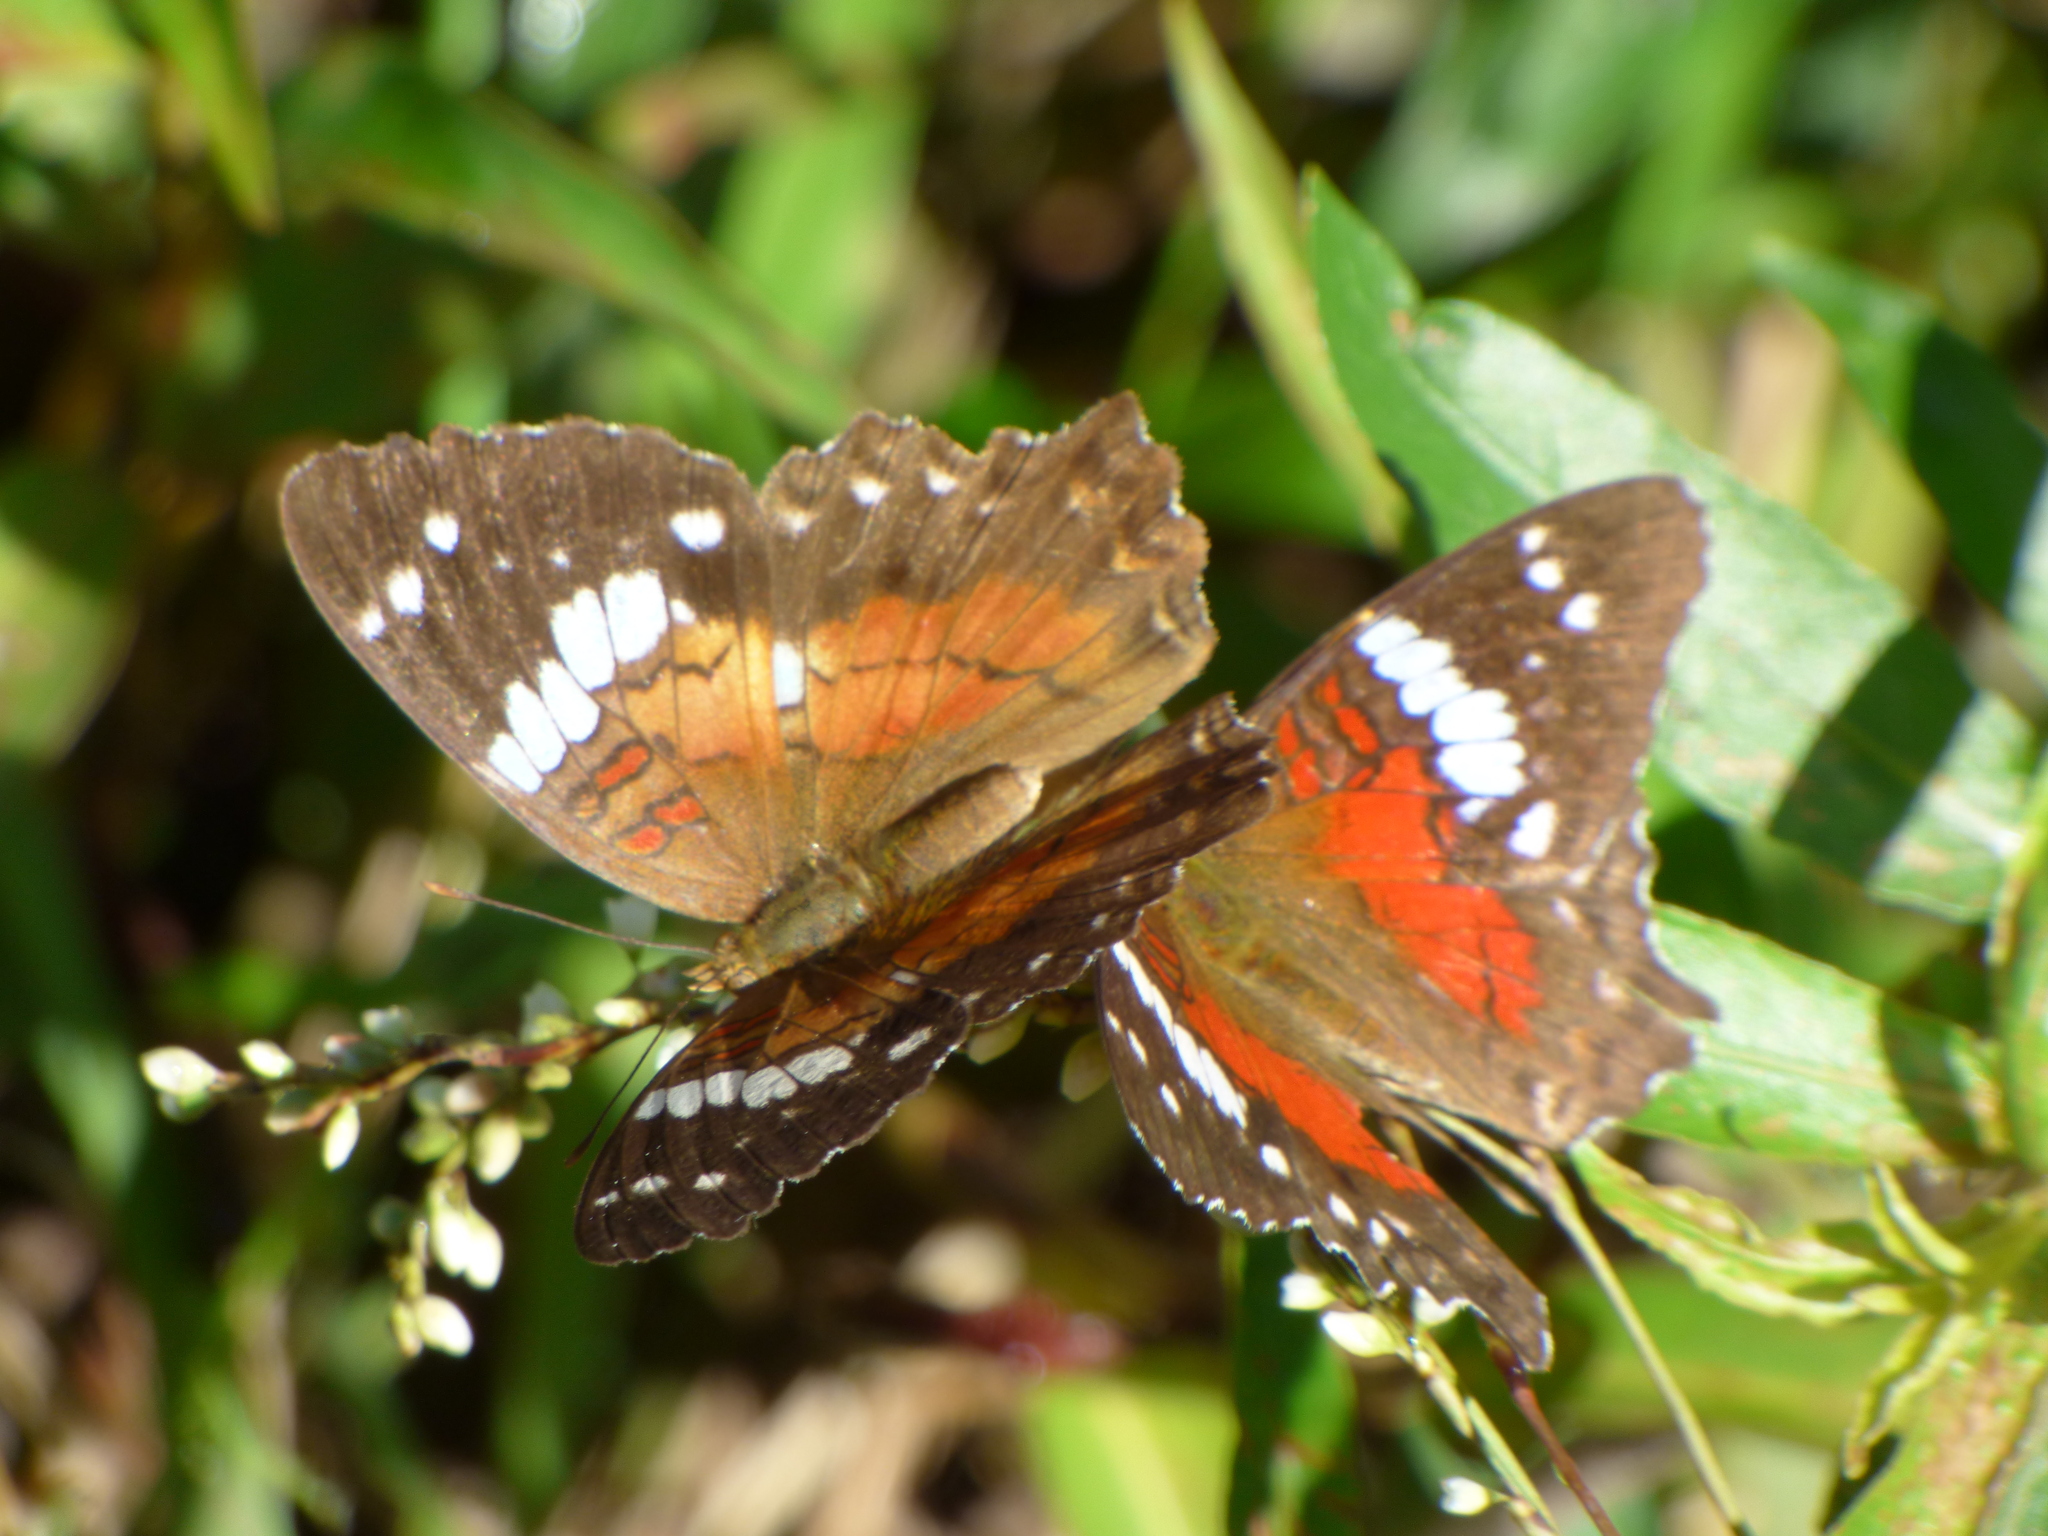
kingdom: Animalia
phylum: Arthropoda
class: Insecta
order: Lepidoptera
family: Nymphalidae
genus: Anartia
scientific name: Anartia amathea
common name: Red peacock
